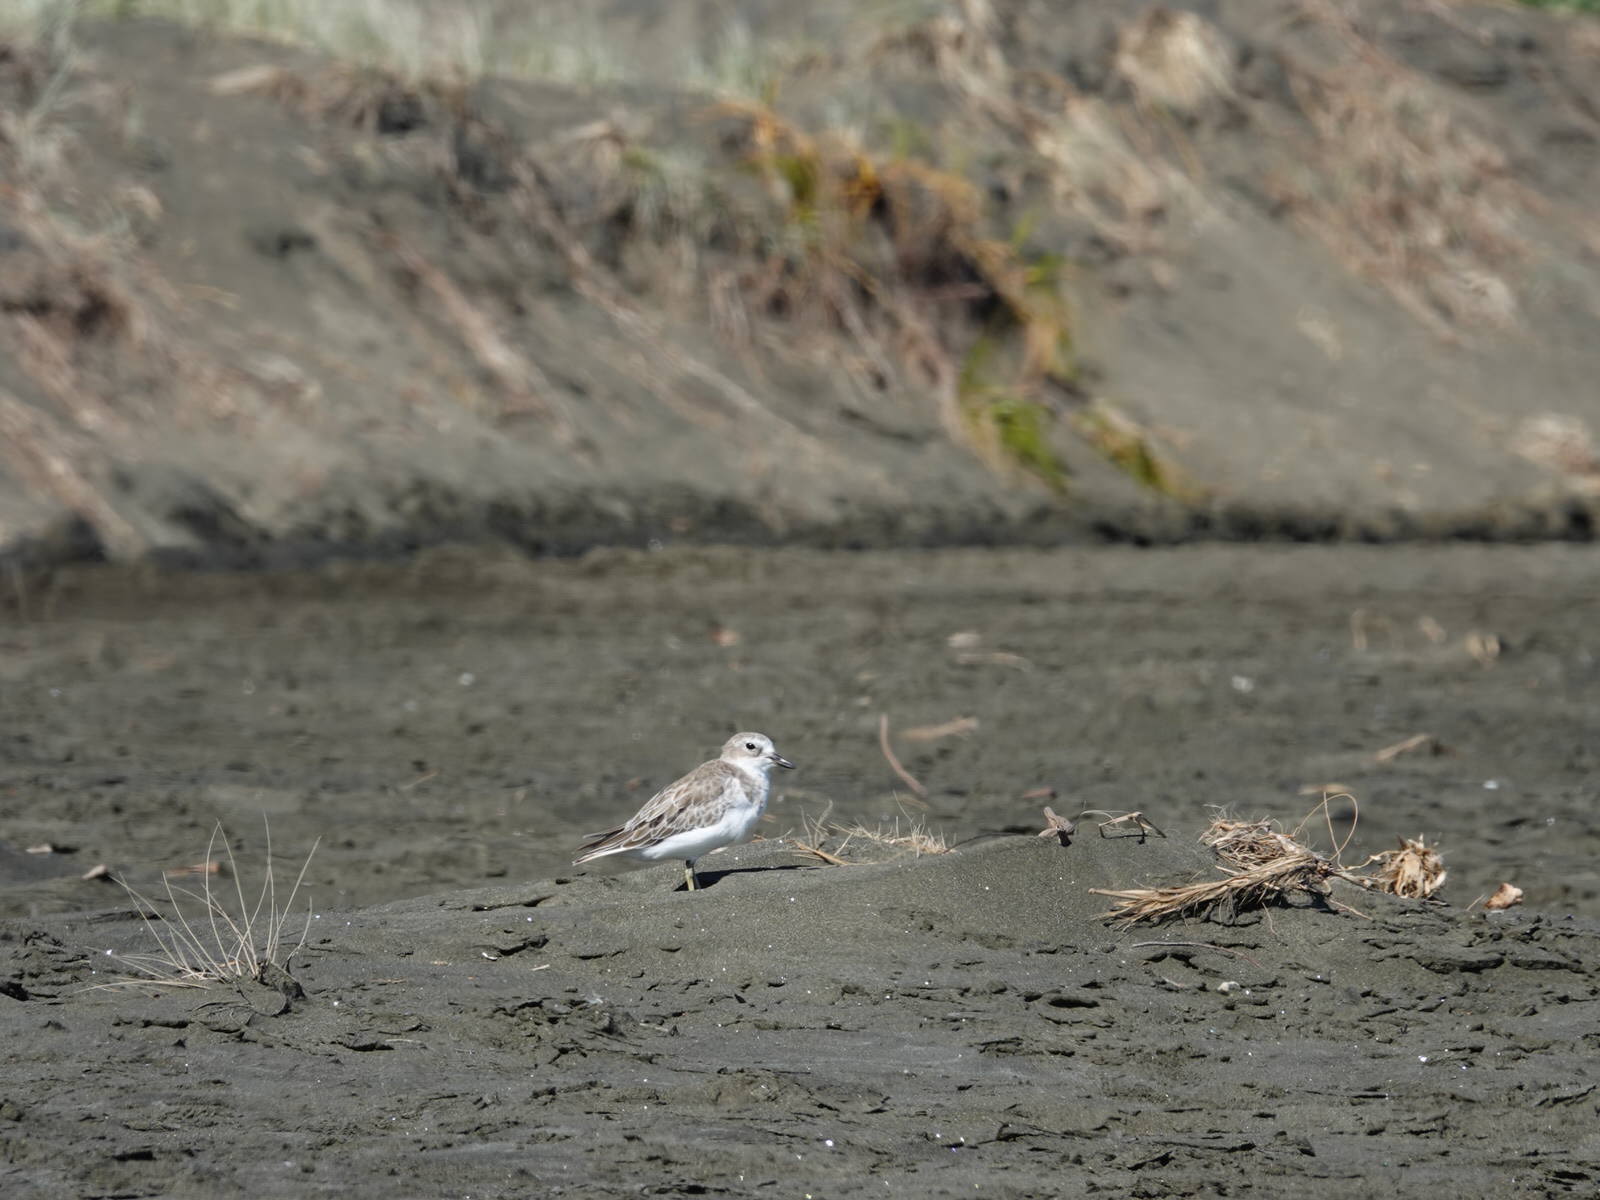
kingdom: Animalia
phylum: Chordata
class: Aves
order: Charadriiformes
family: Charadriidae
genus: Anarhynchus
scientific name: Anarhynchus
